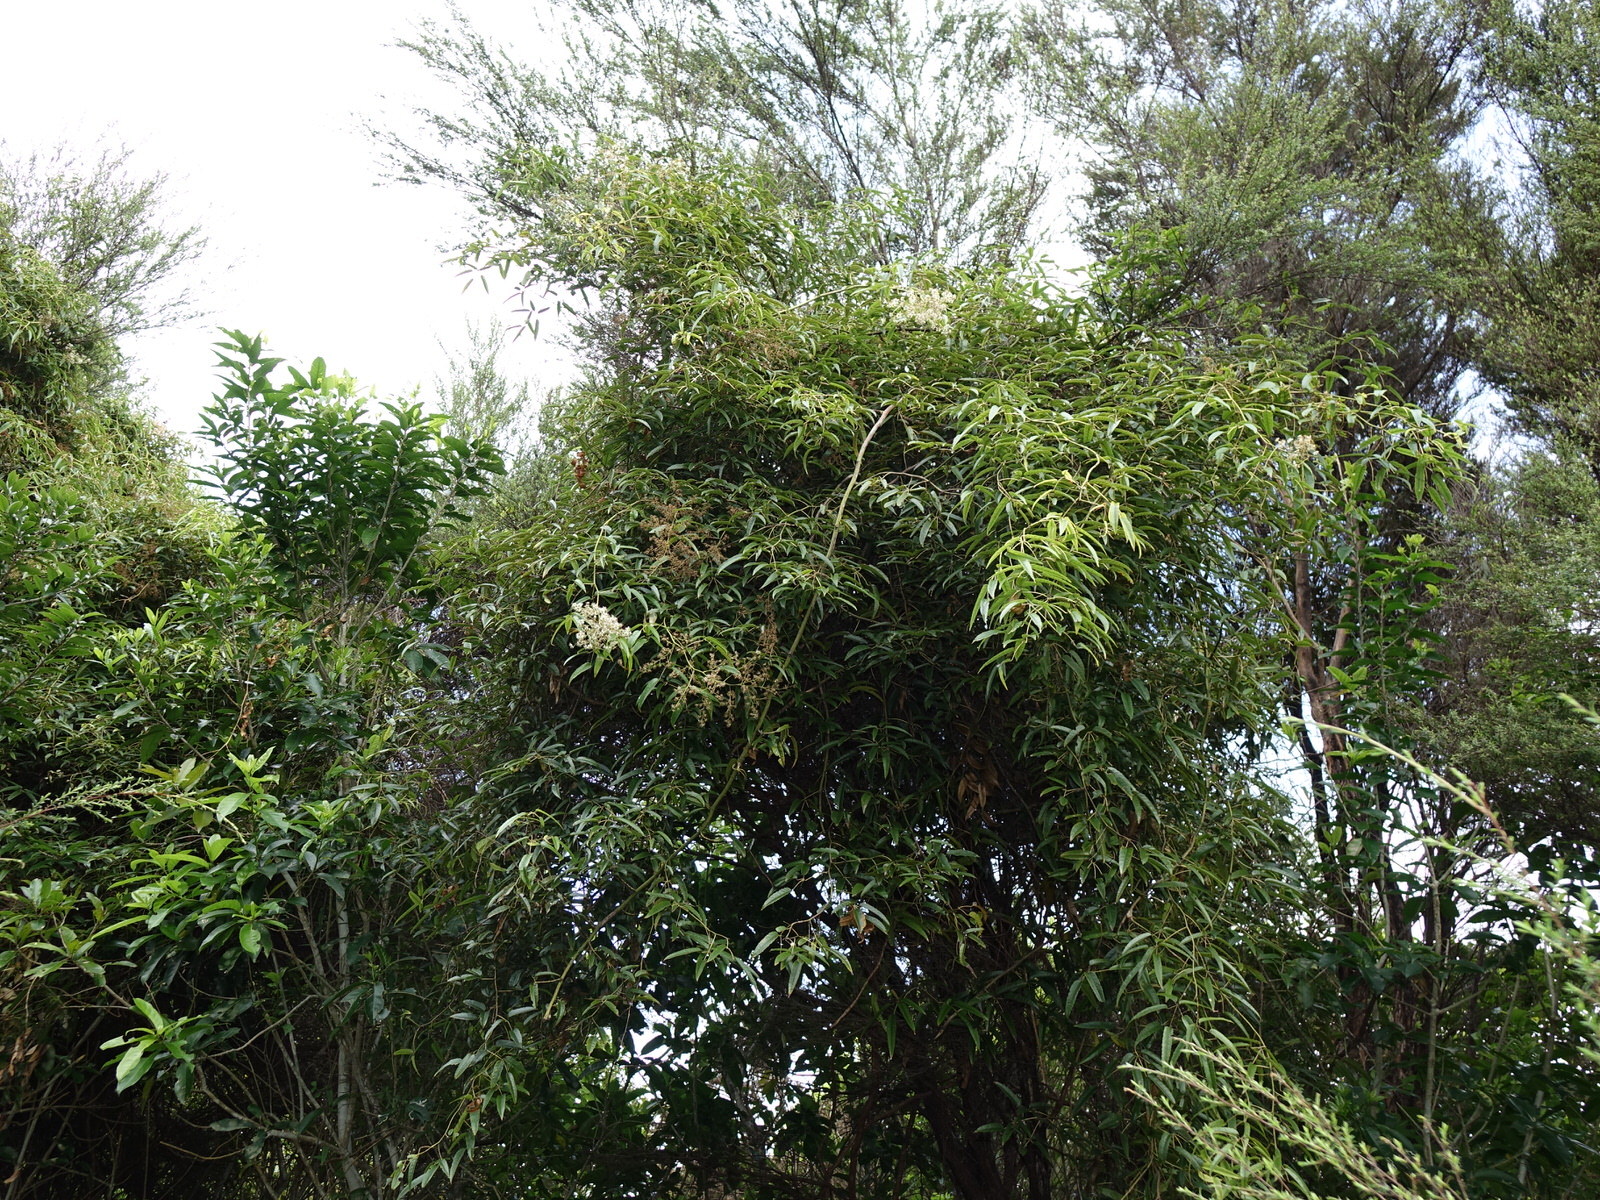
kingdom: Plantae
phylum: Tracheophyta
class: Magnoliopsida
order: Rosales
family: Rosaceae
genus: Rubus
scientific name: Rubus cissoides
